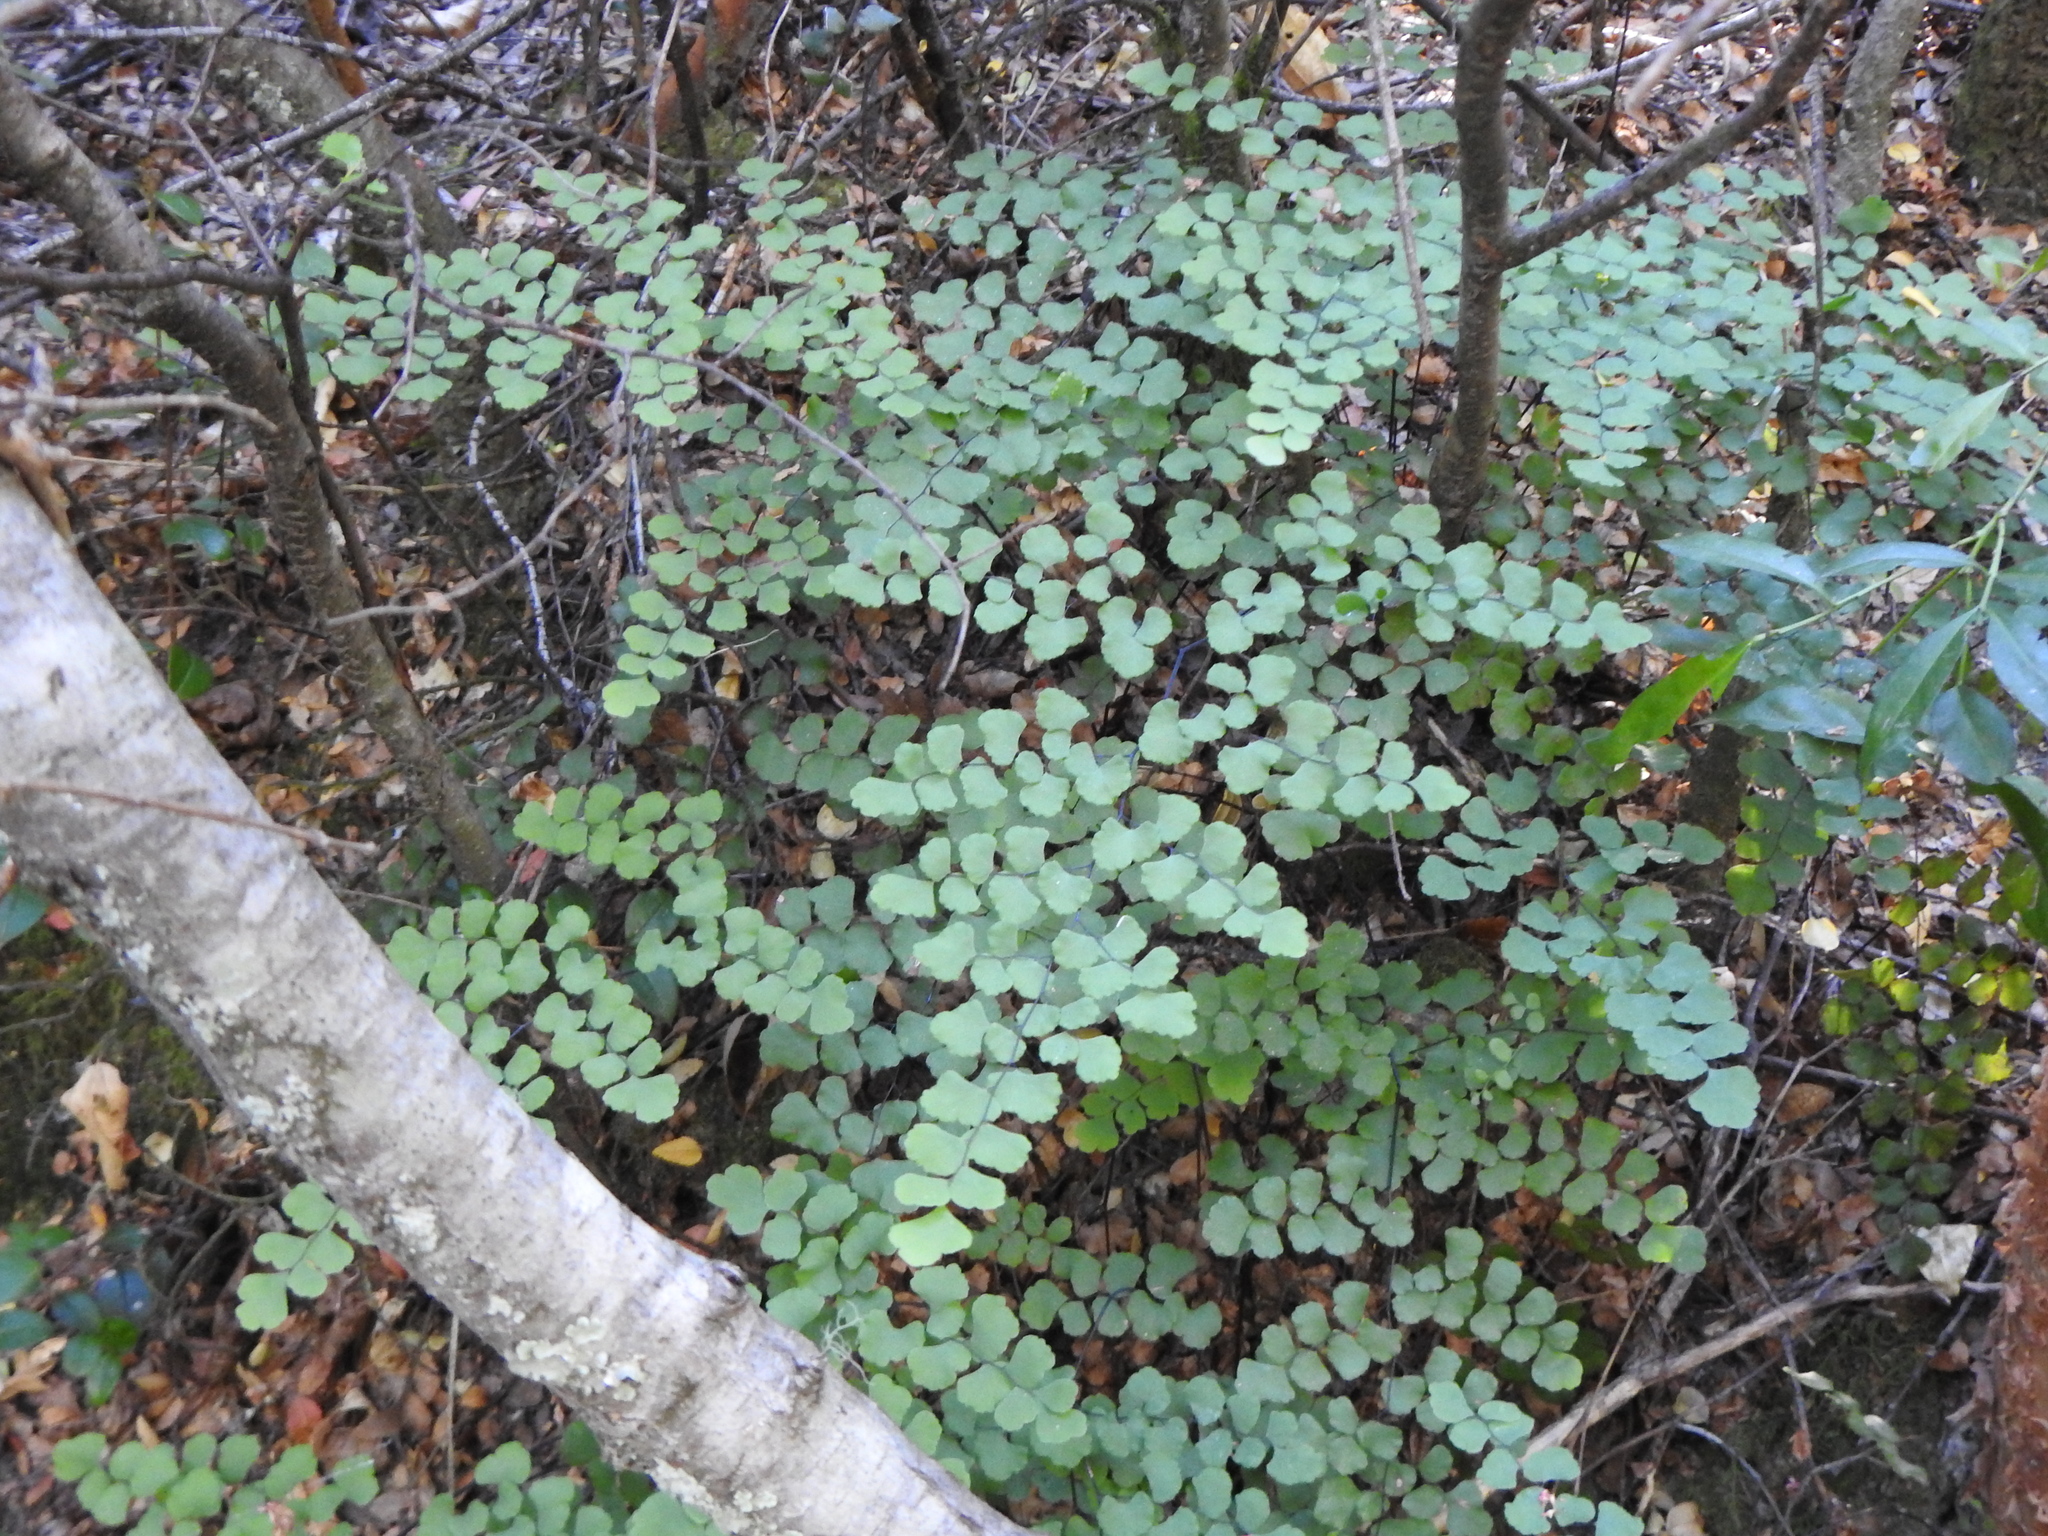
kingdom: Plantae
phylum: Tracheophyta
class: Polypodiopsida
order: Polypodiales
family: Pteridaceae
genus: Adiantum
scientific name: Adiantum chilense
